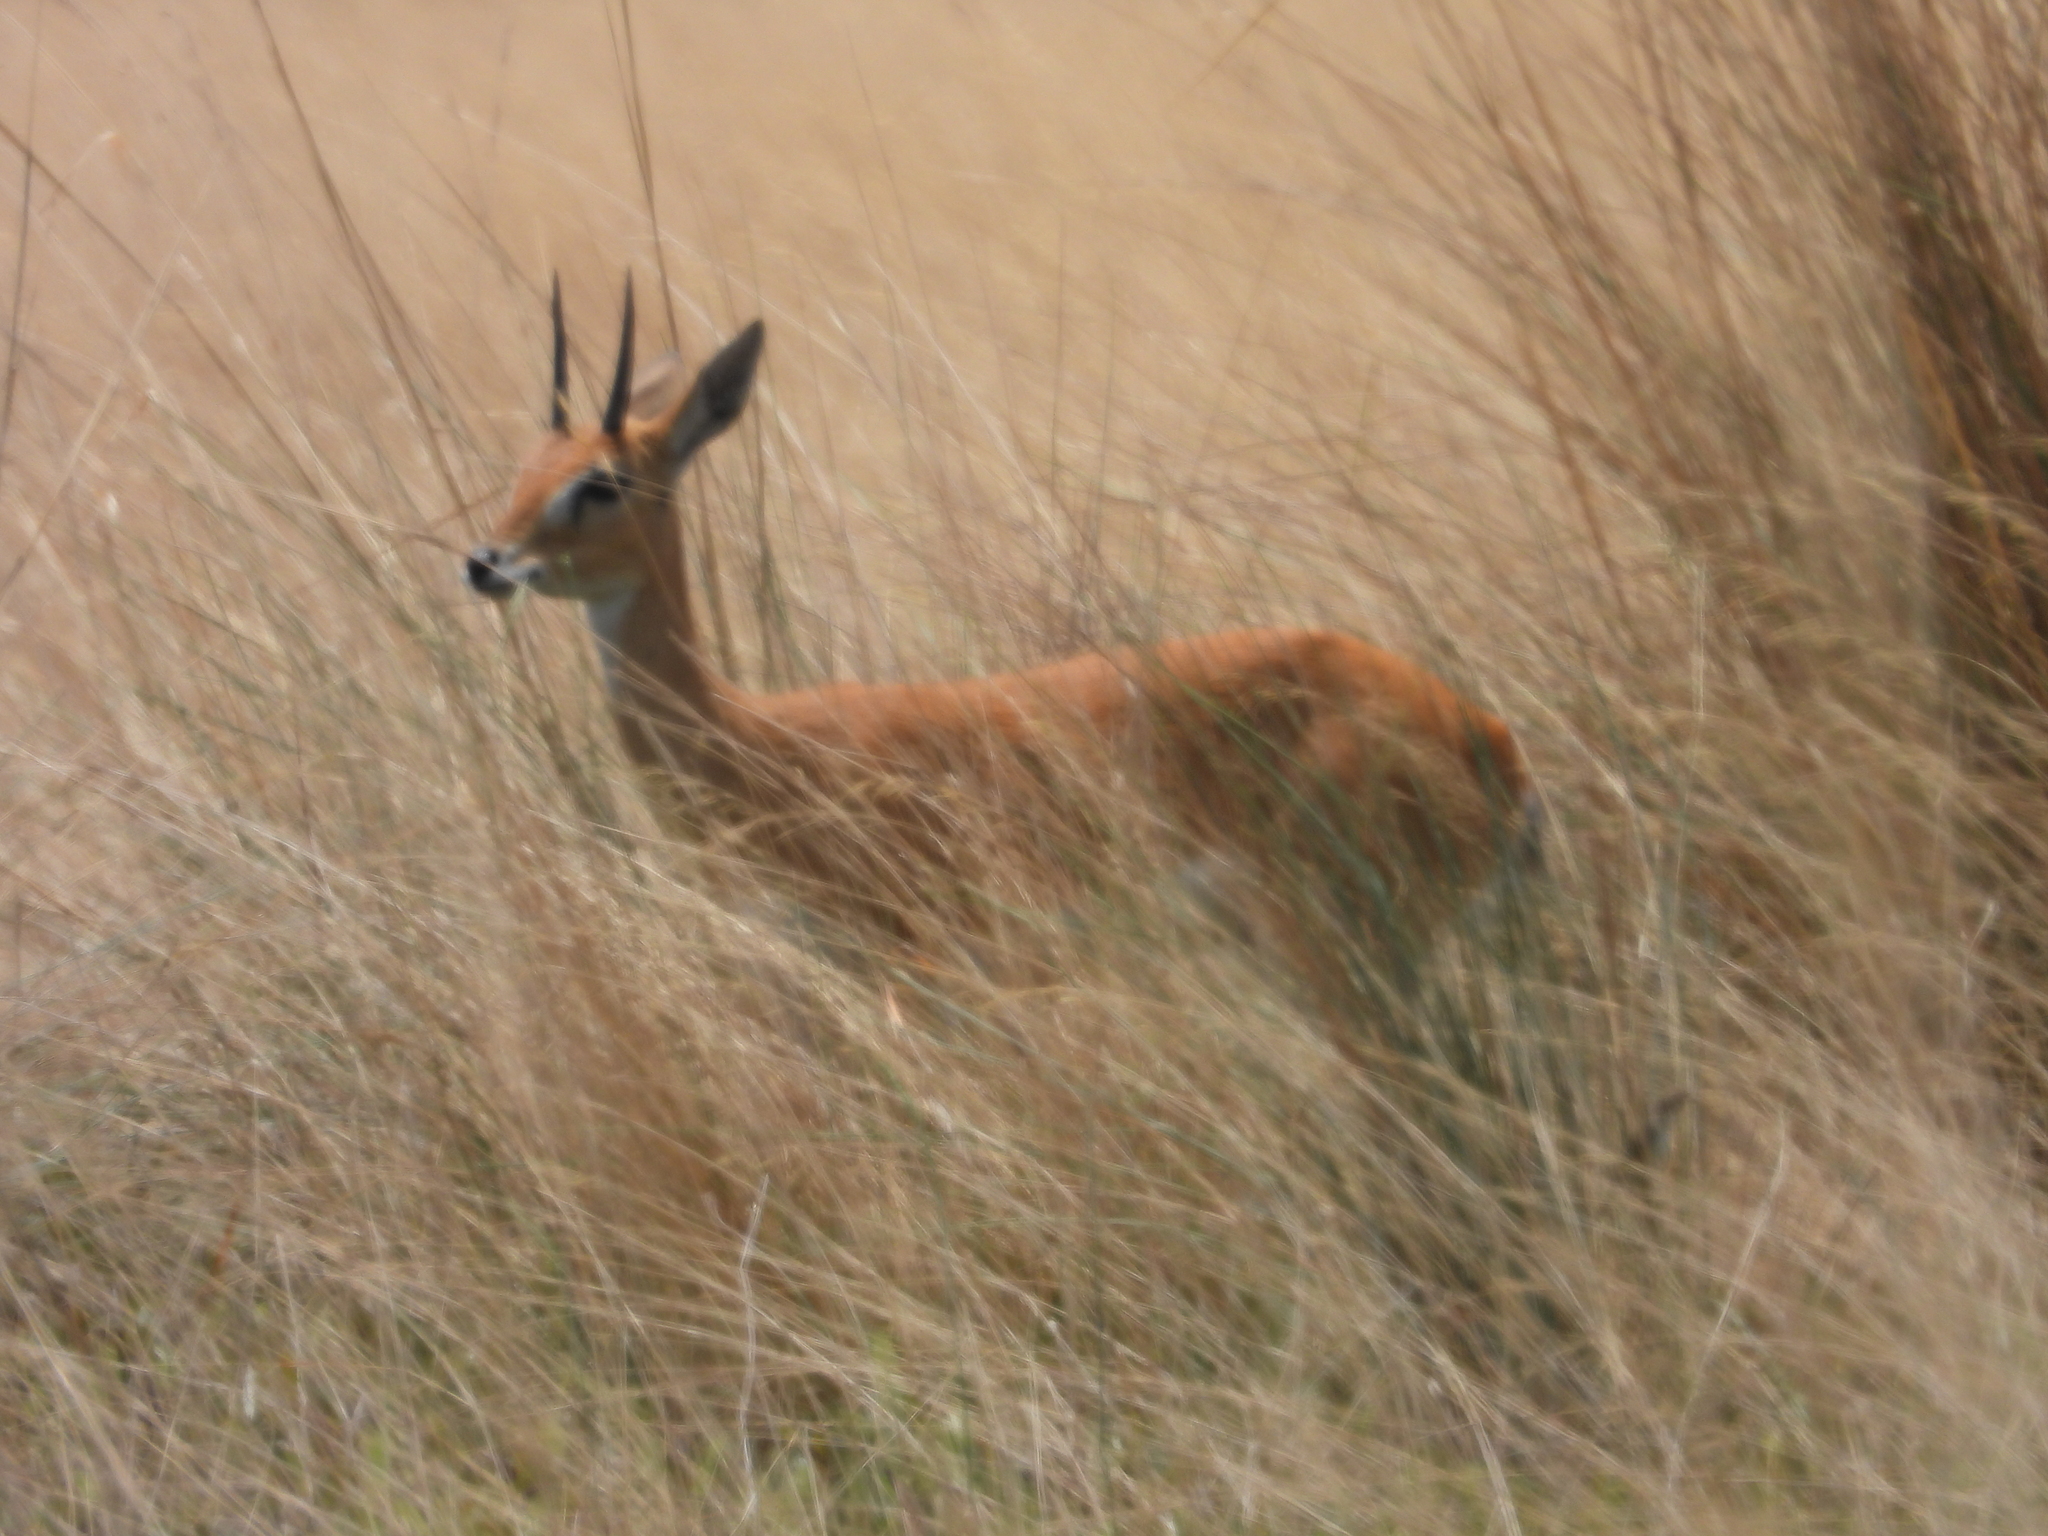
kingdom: Animalia
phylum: Chordata
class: Mammalia
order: Artiodactyla
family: Bovidae
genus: Ourebia
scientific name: Ourebia ourebi
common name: Oribi
